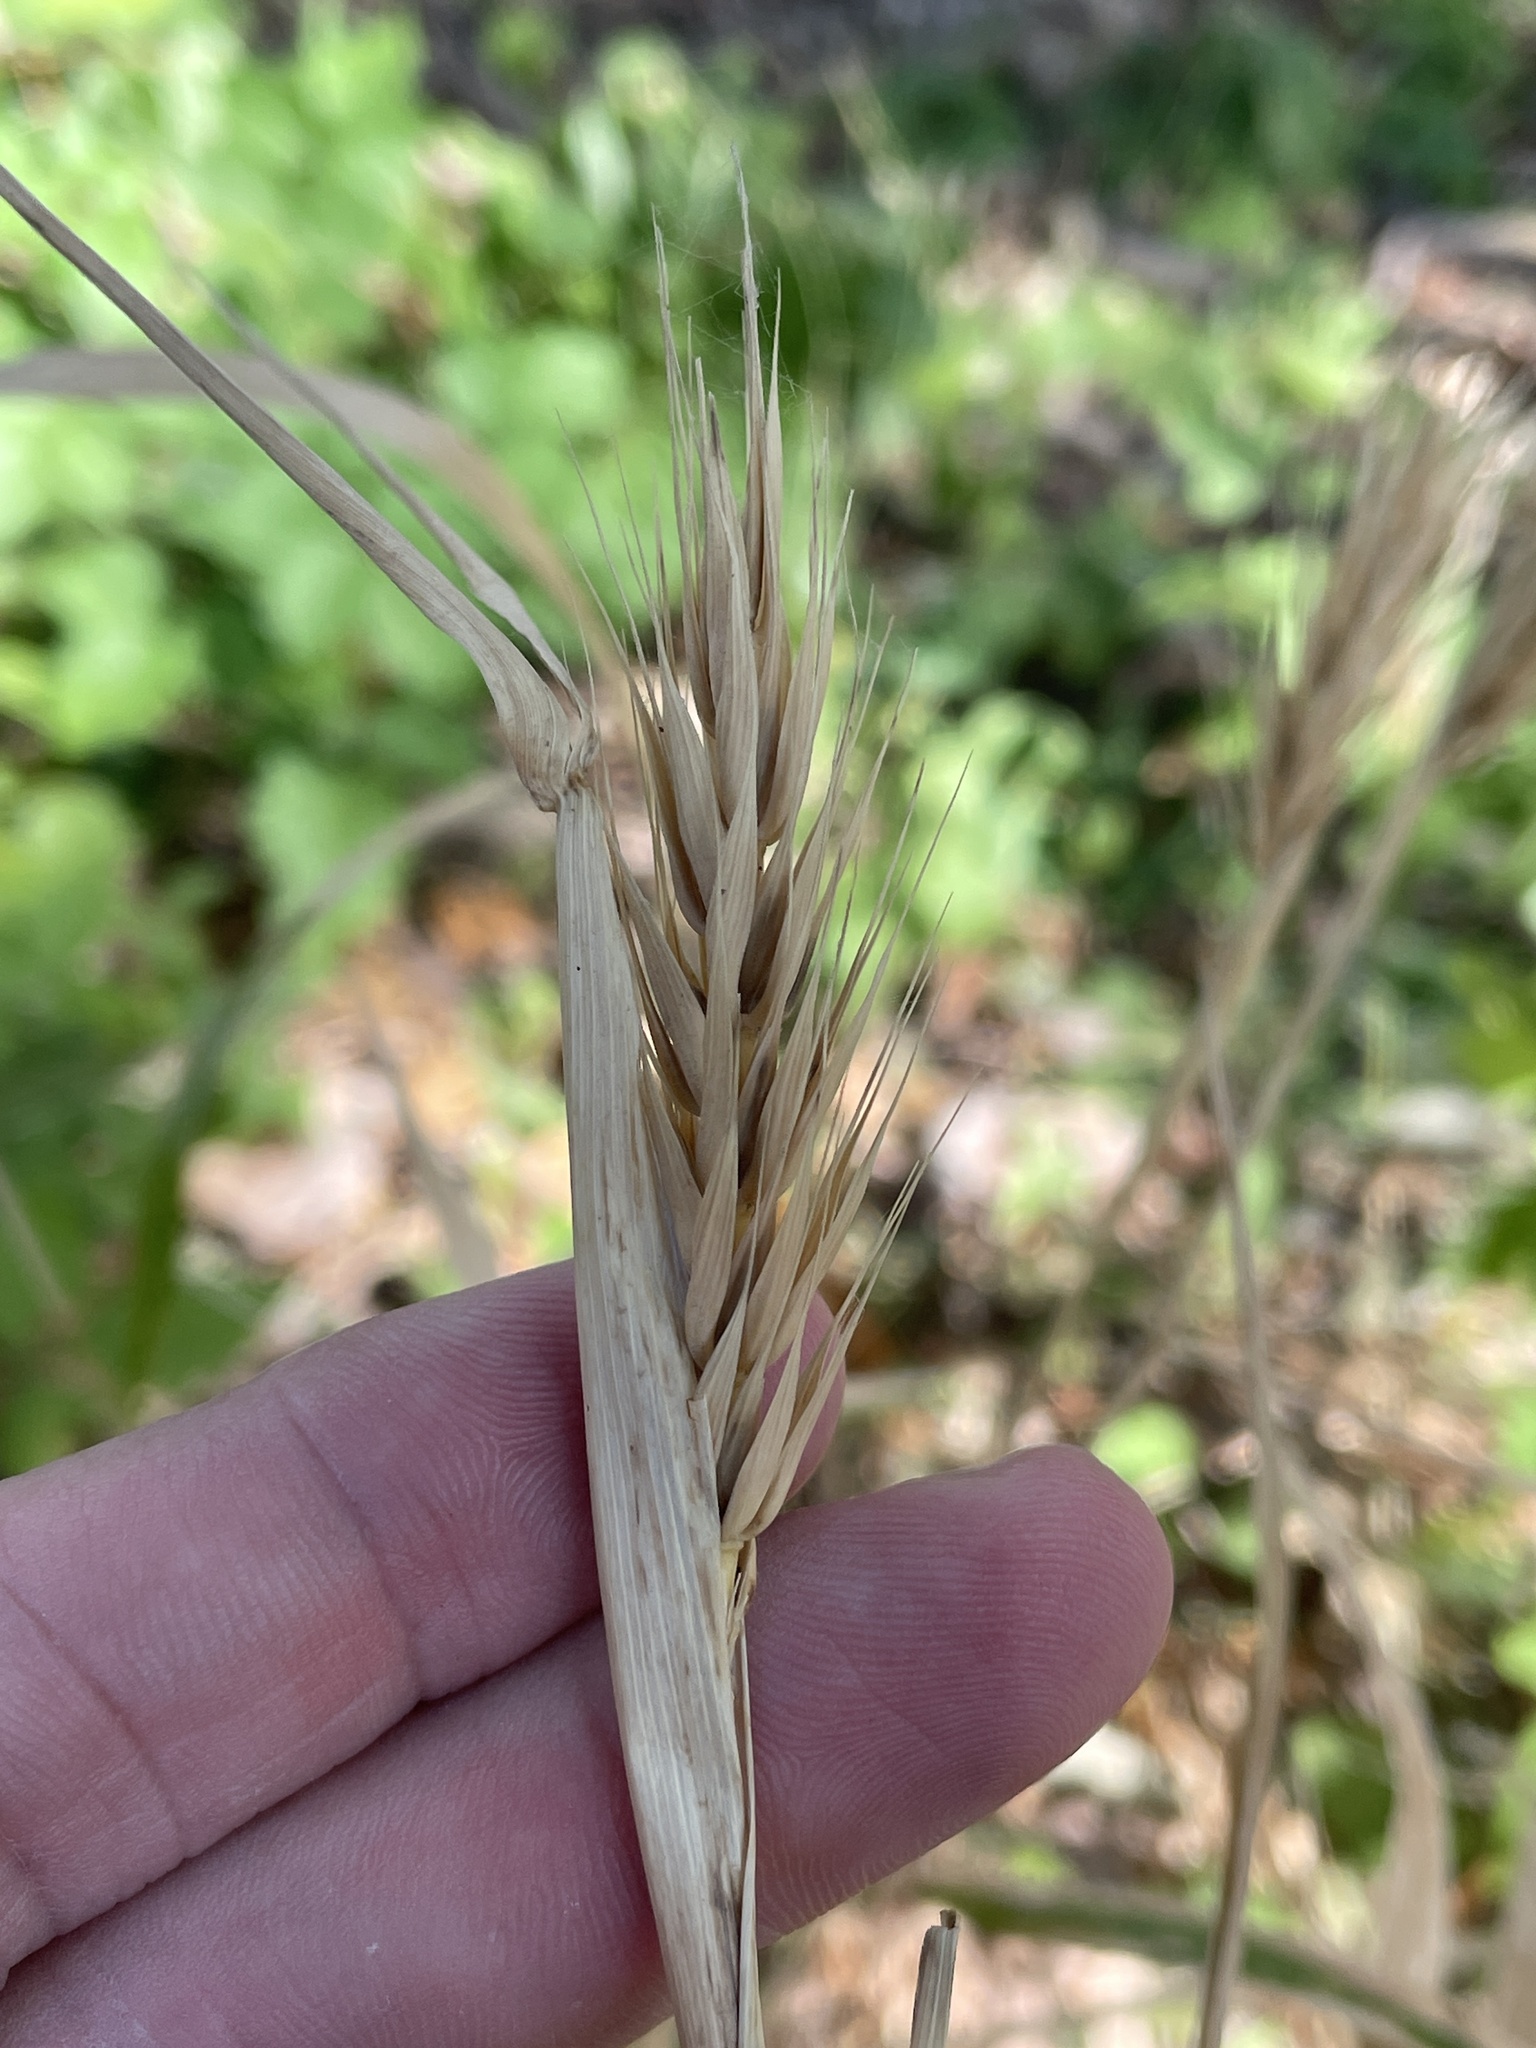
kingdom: Plantae
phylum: Tracheophyta
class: Liliopsida
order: Poales
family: Poaceae
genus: Elymus
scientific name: Elymus virginicus
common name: Common eastern wildrye
